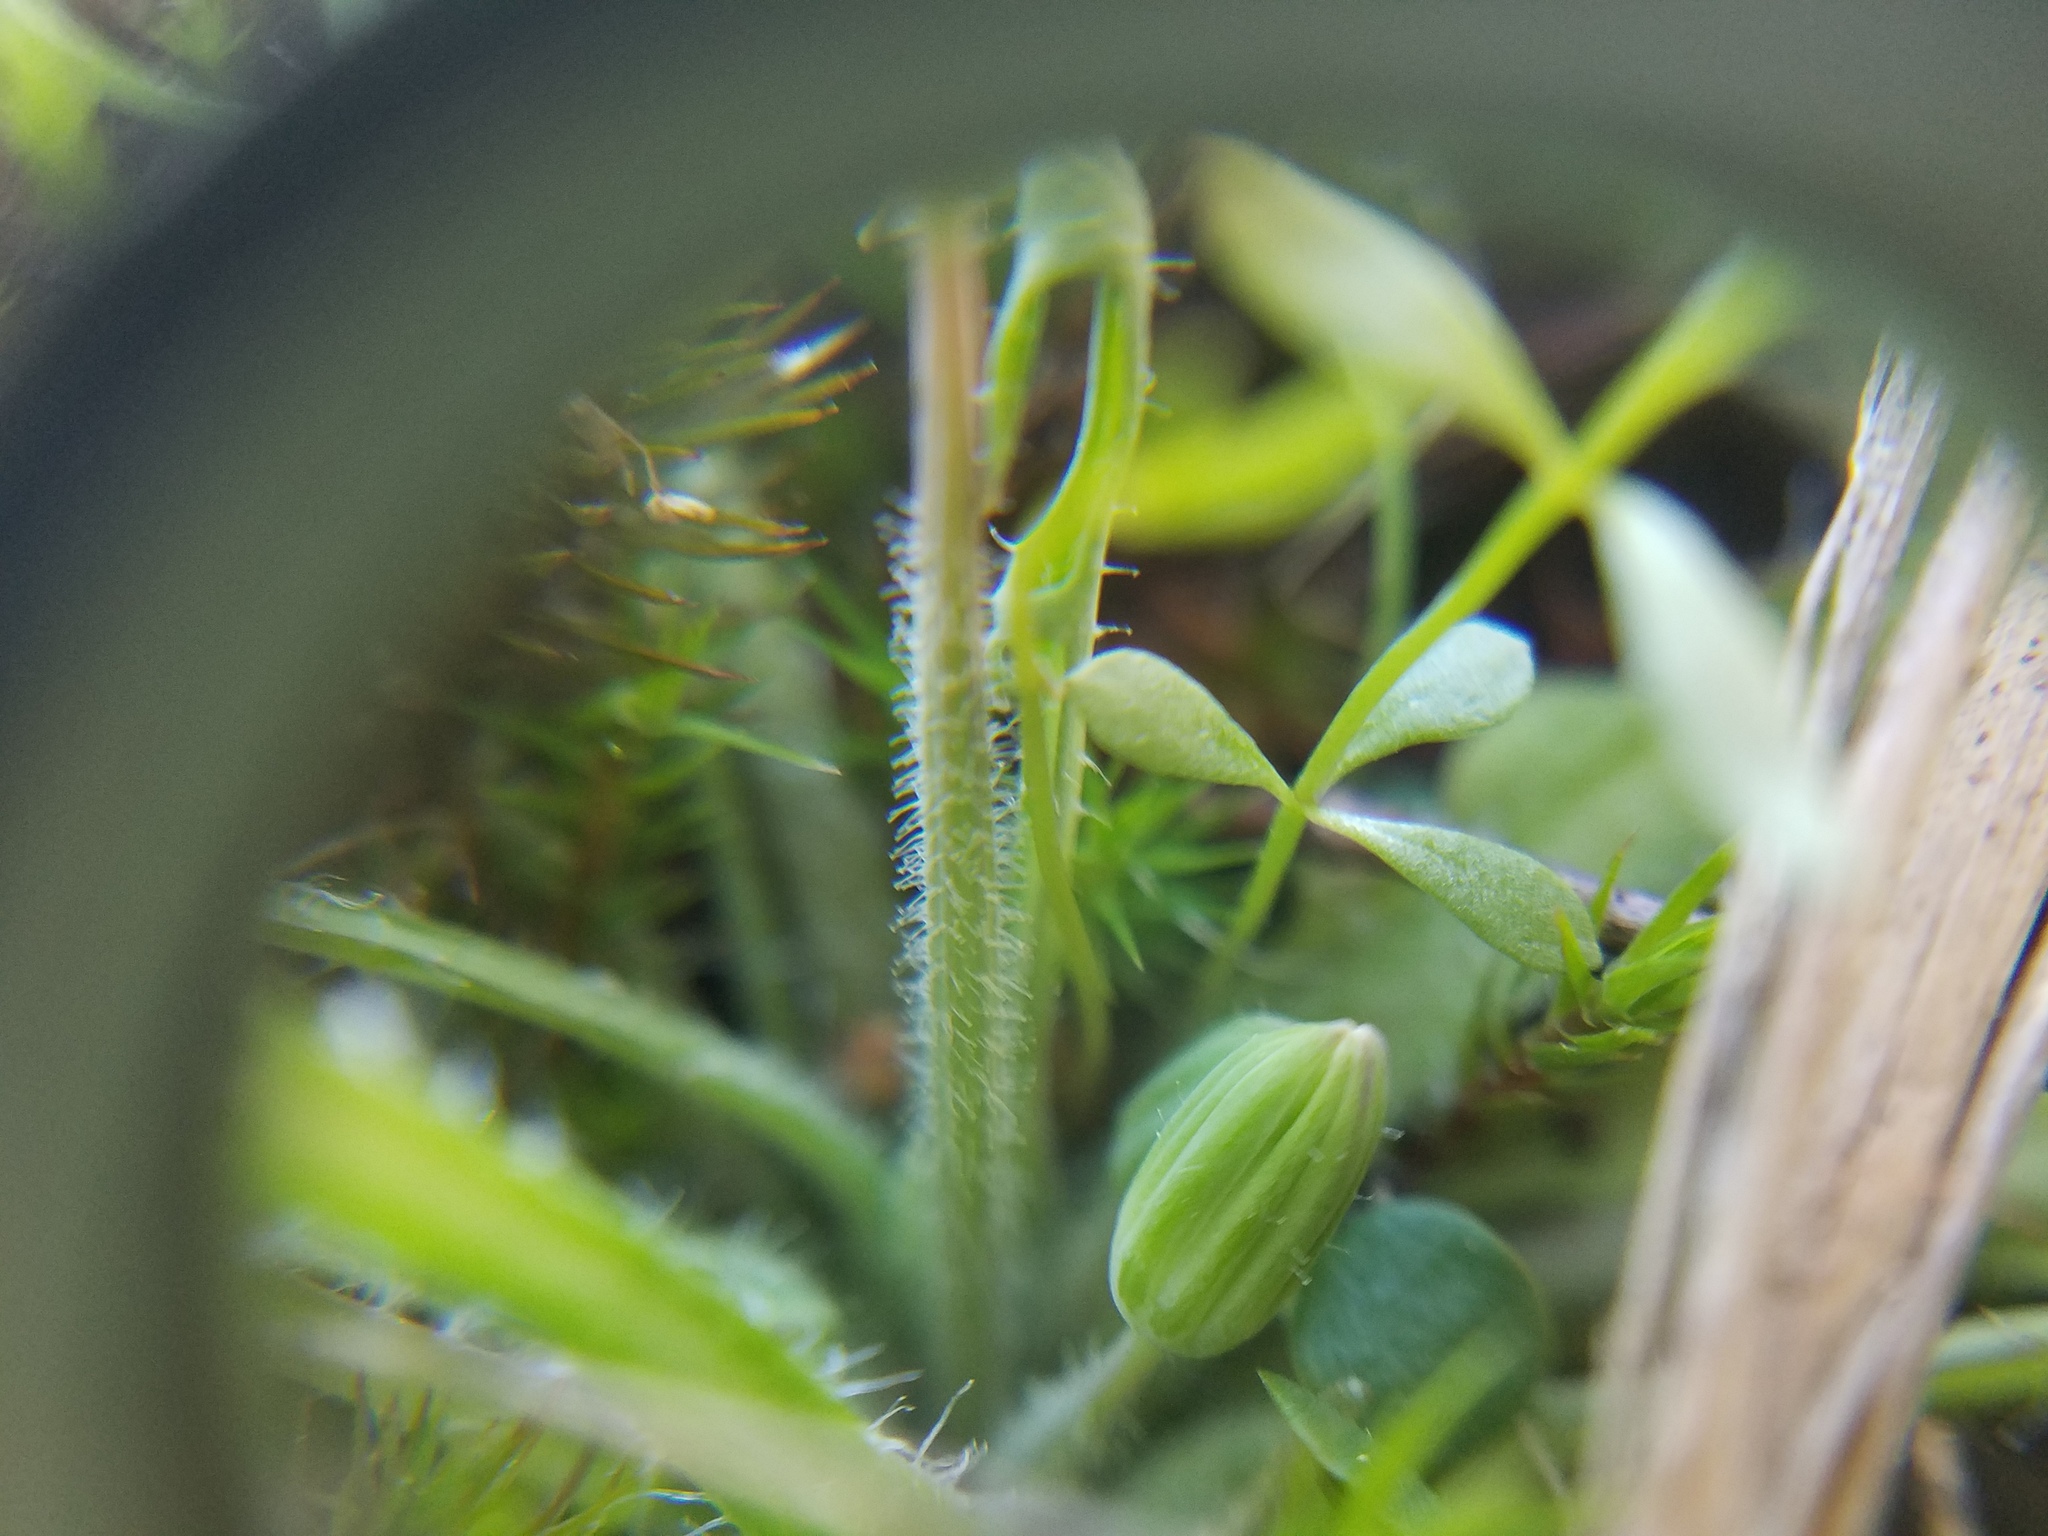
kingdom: Plantae
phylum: Tracheophyta
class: Magnoliopsida
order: Asterales
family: Asteraceae
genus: Krigia
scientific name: Krigia virginica
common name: Virginia dwarf-dandelion
